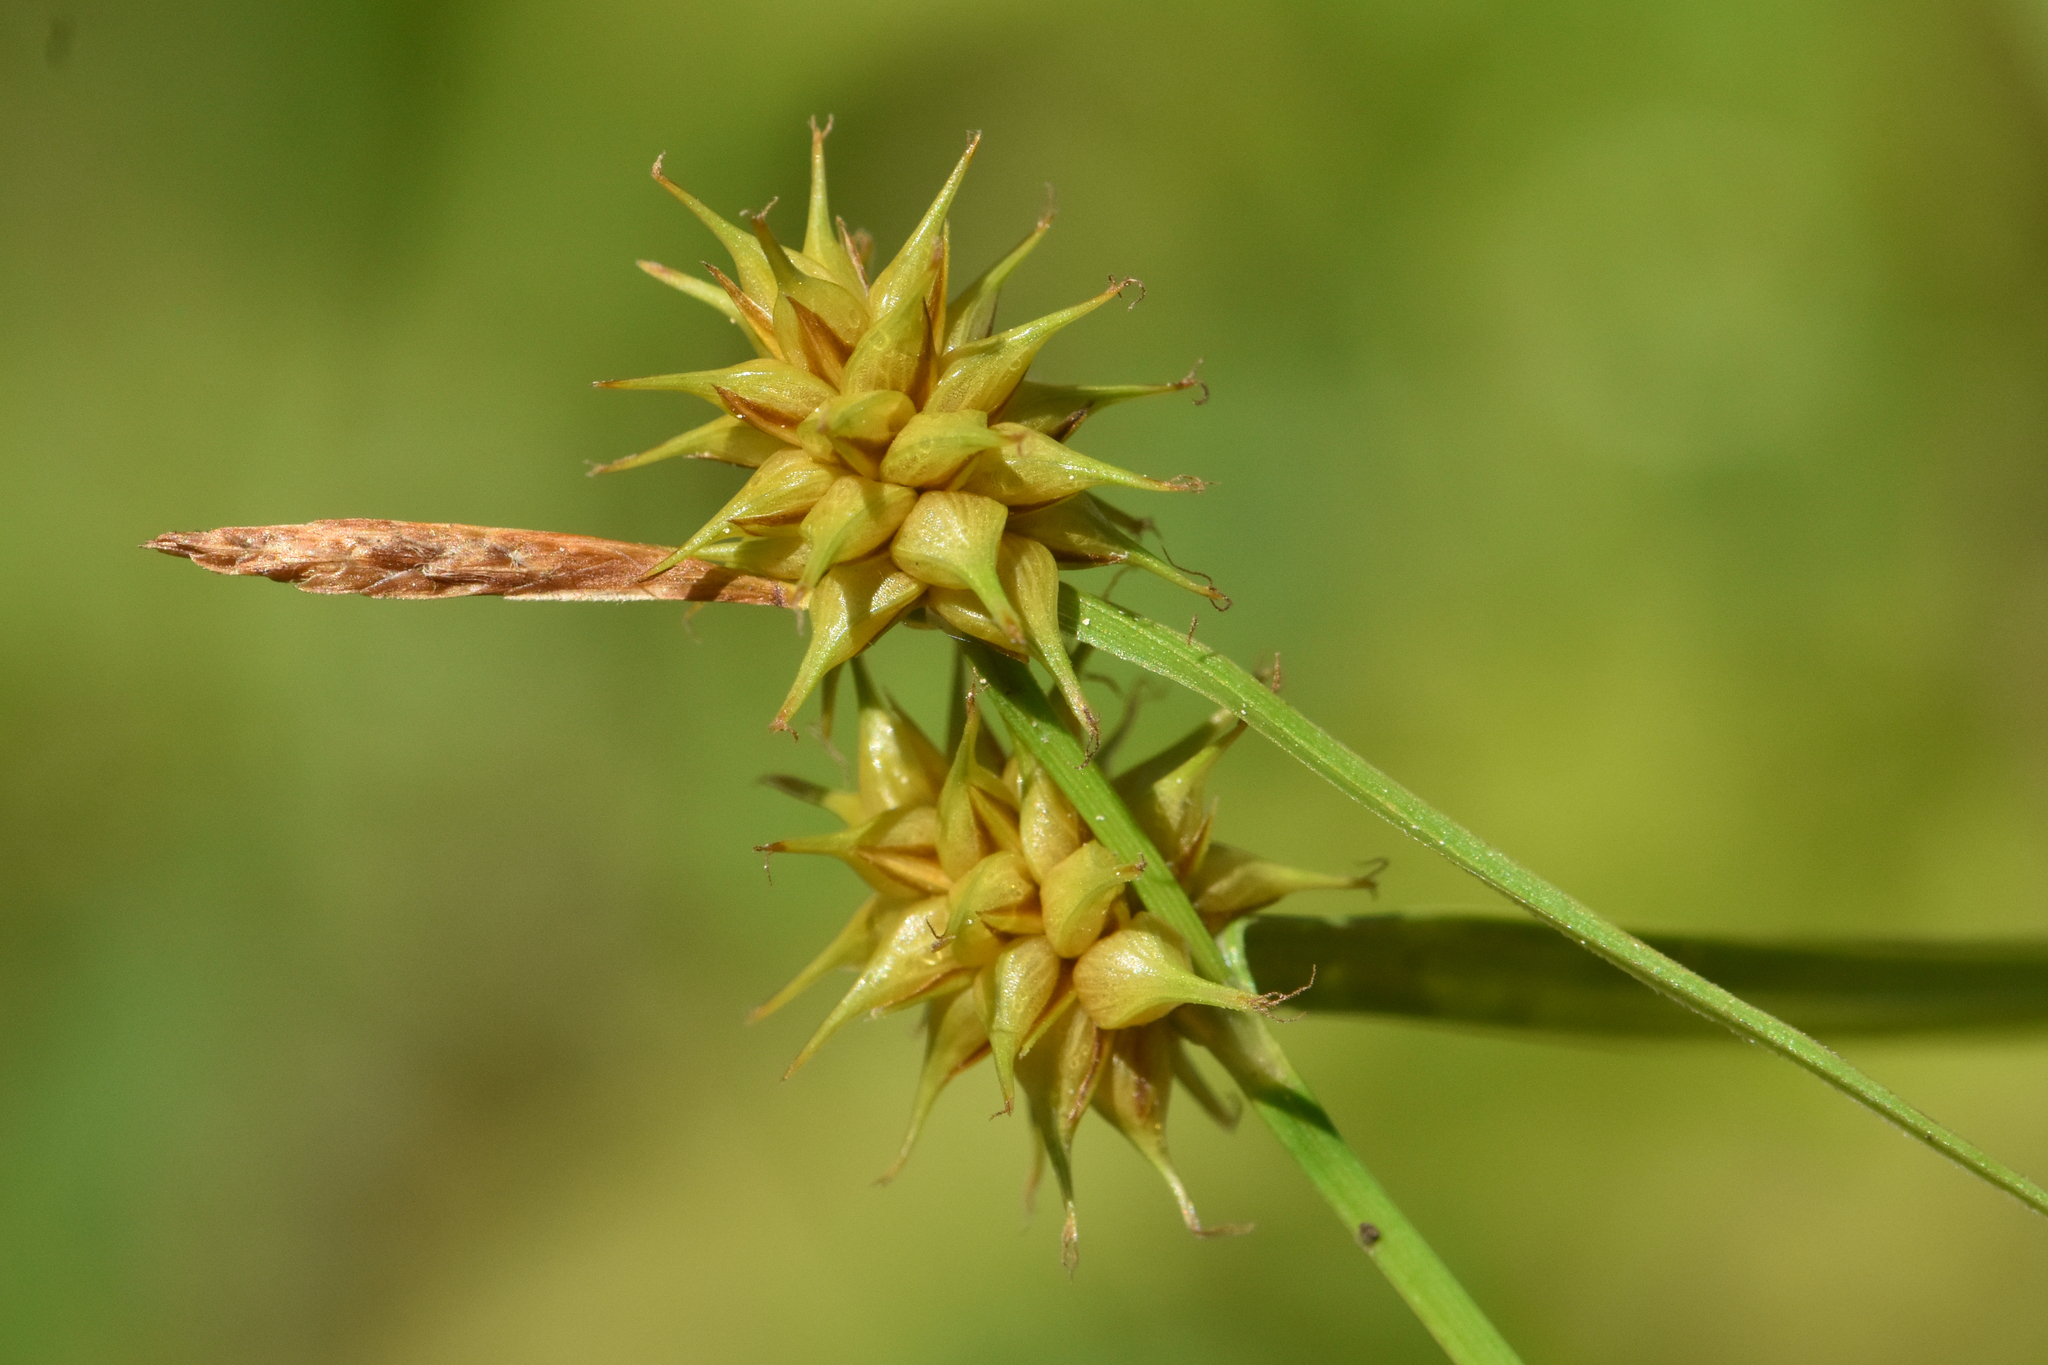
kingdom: Plantae
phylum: Tracheophyta
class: Liliopsida
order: Poales
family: Cyperaceae
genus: Carex
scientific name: Carex flava
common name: Large yellow-sedge
